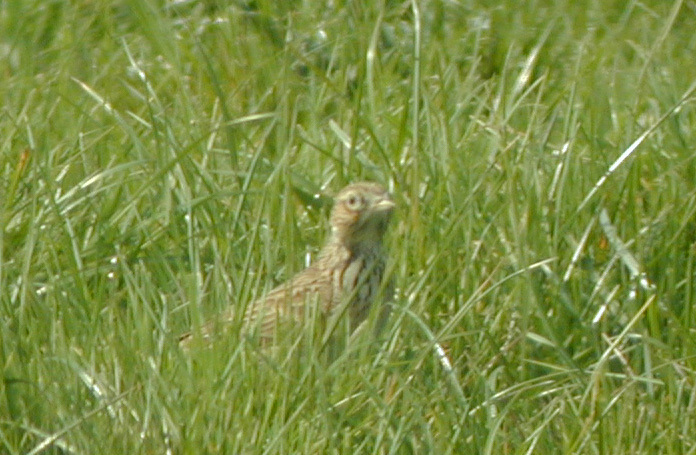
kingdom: Animalia
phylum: Chordata
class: Aves
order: Passeriformes
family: Alaudidae
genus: Alauda
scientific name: Alauda arvensis
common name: Eurasian skylark
